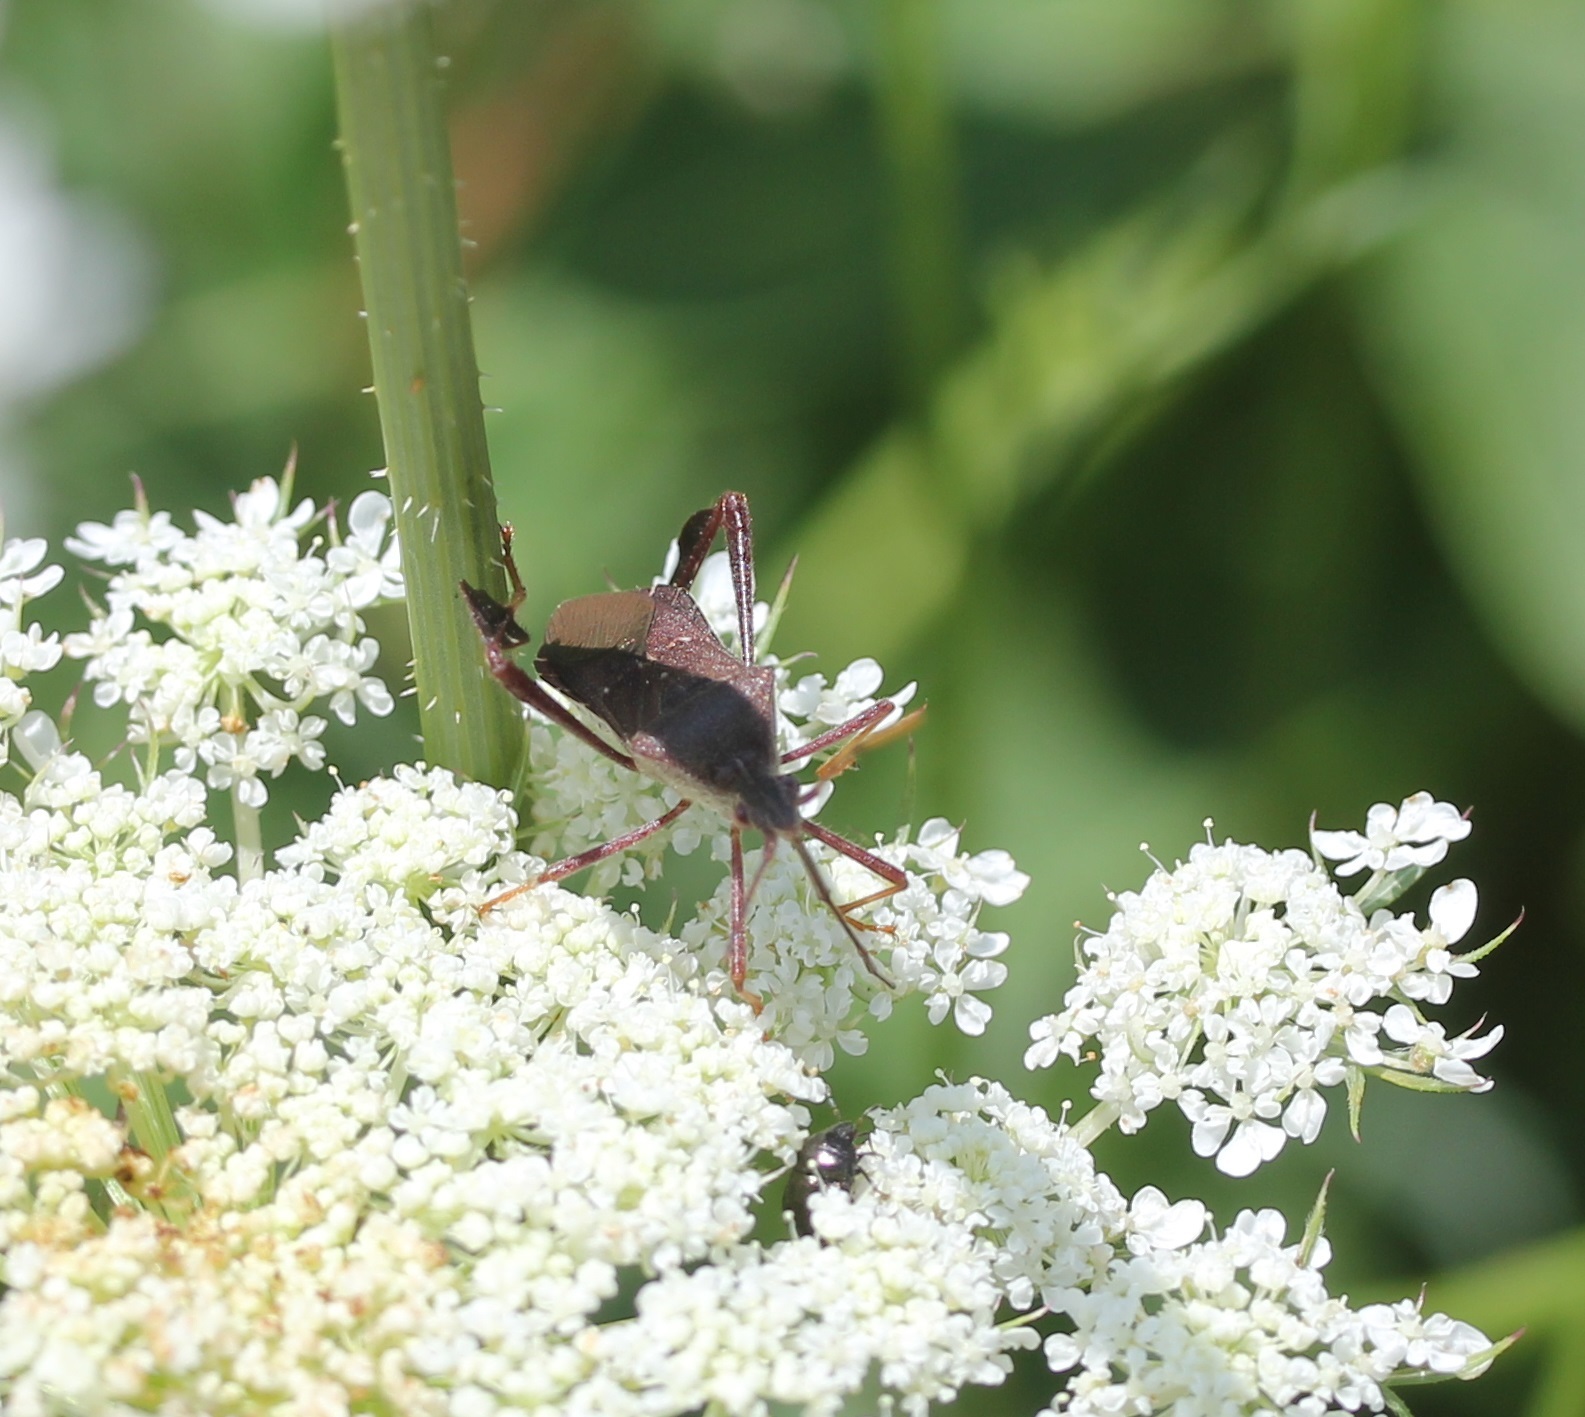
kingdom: Animalia
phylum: Arthropoda
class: Insecta
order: Hemiptera
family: Coreidae
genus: Leptoglossus
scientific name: Leptoglossus oppositus
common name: Northern leaf-footed bug
